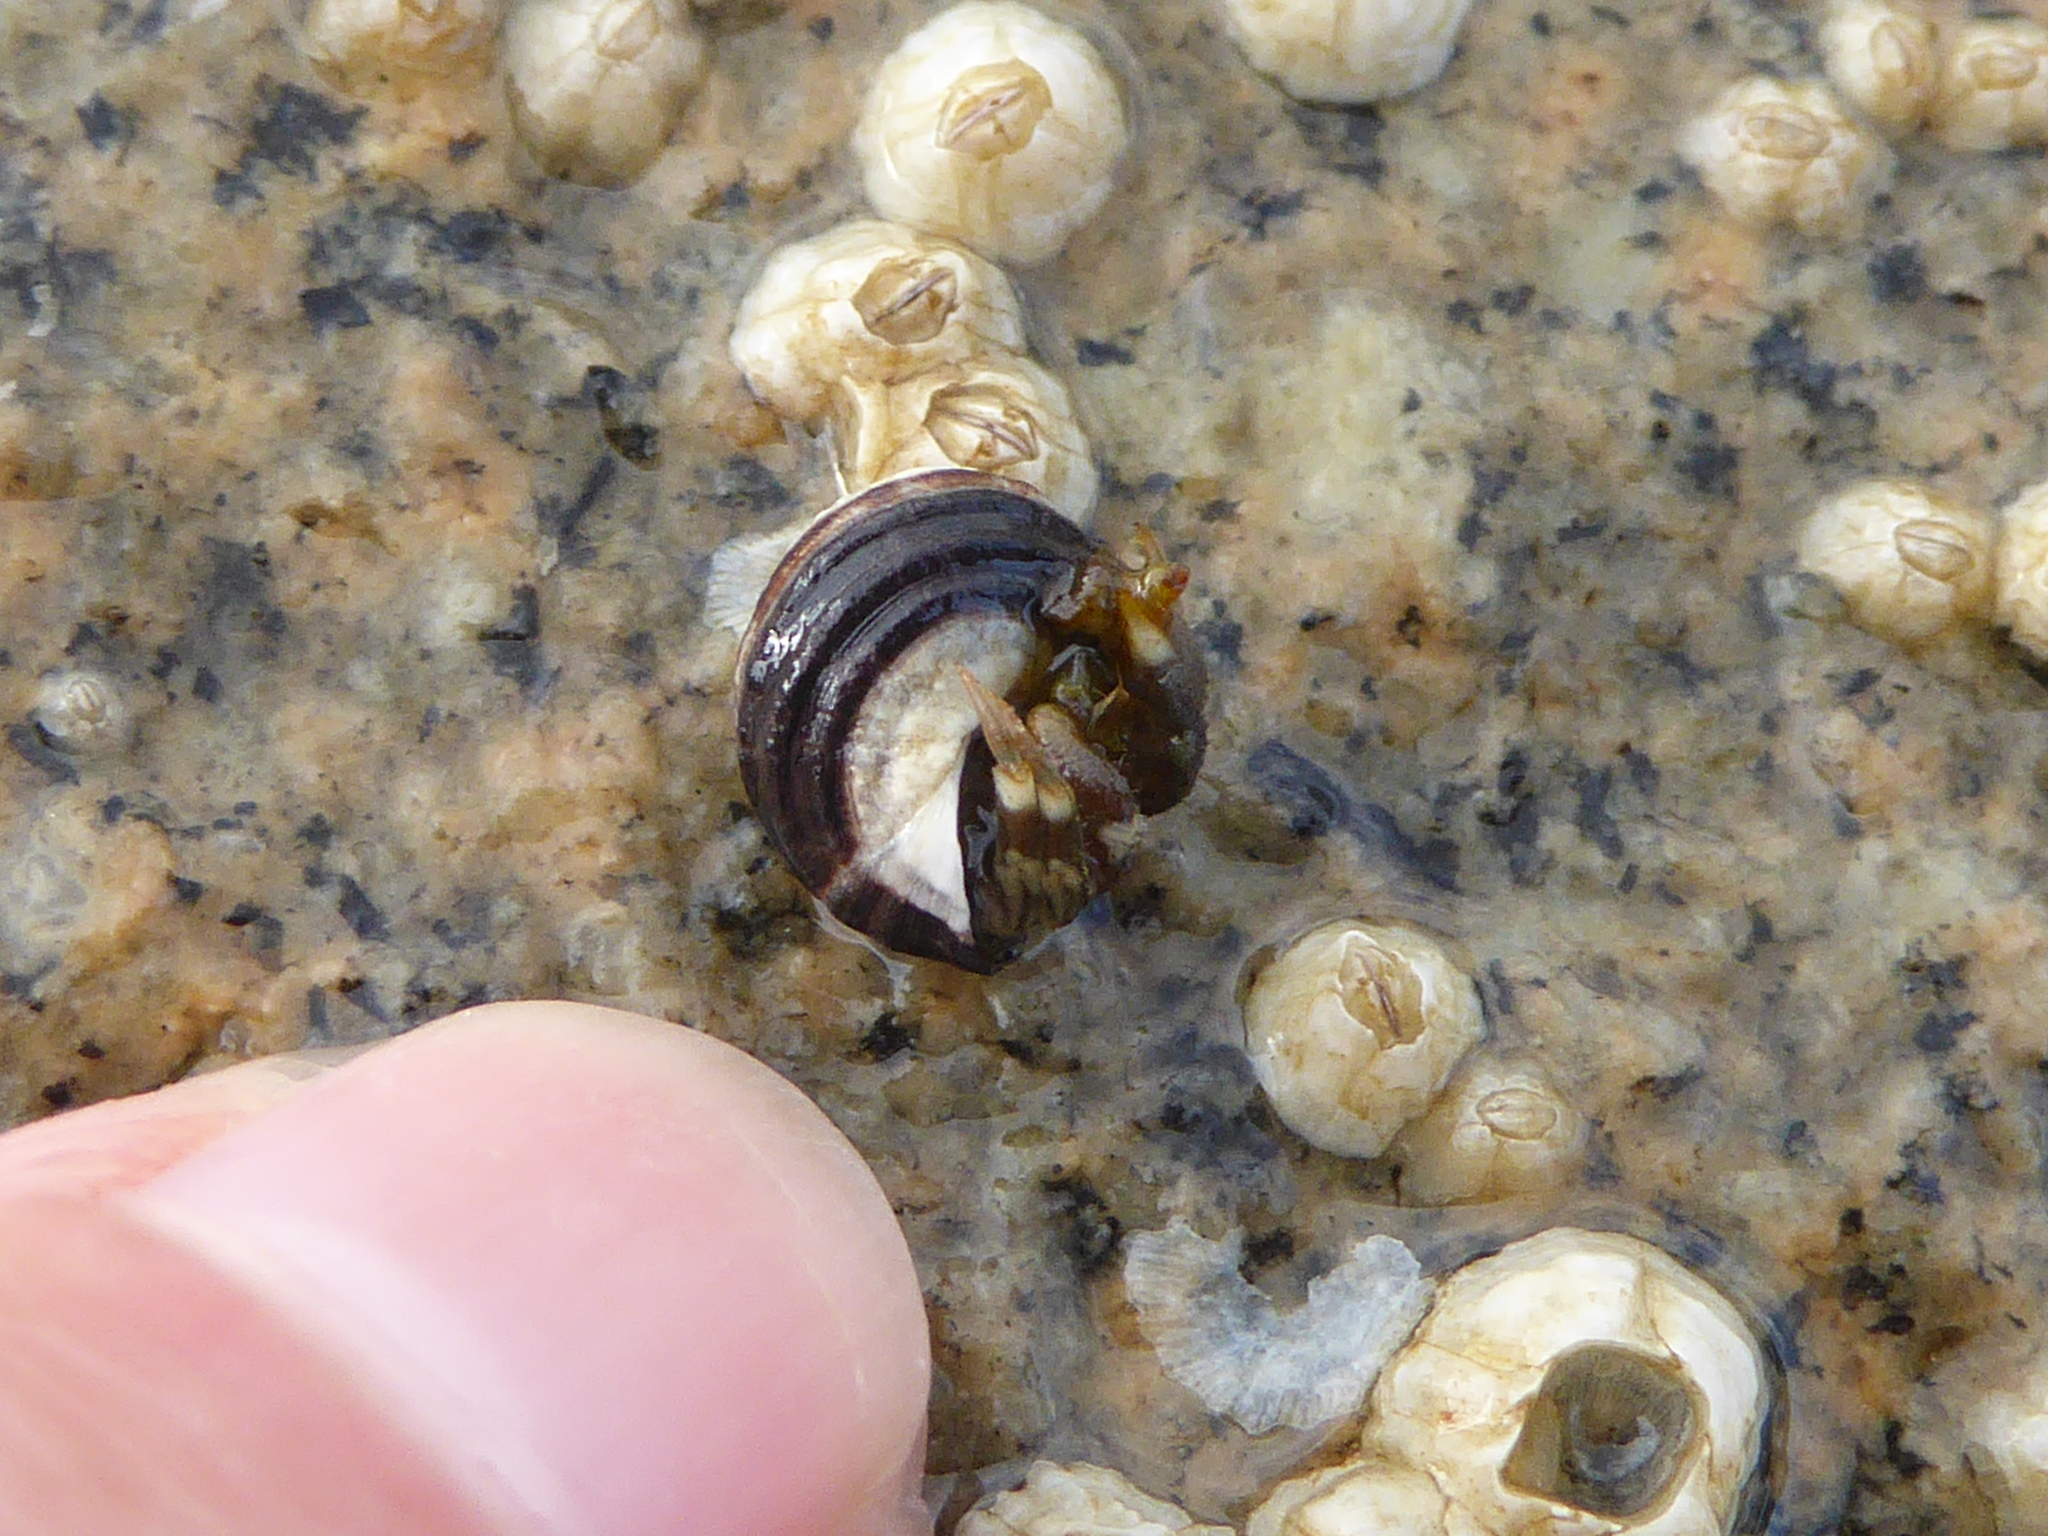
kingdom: Animalia
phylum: Arthropoda
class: Malacostraca
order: Decapoda
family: Paguridae
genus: Pagurus
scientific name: Pagurus hirsutiusculus
